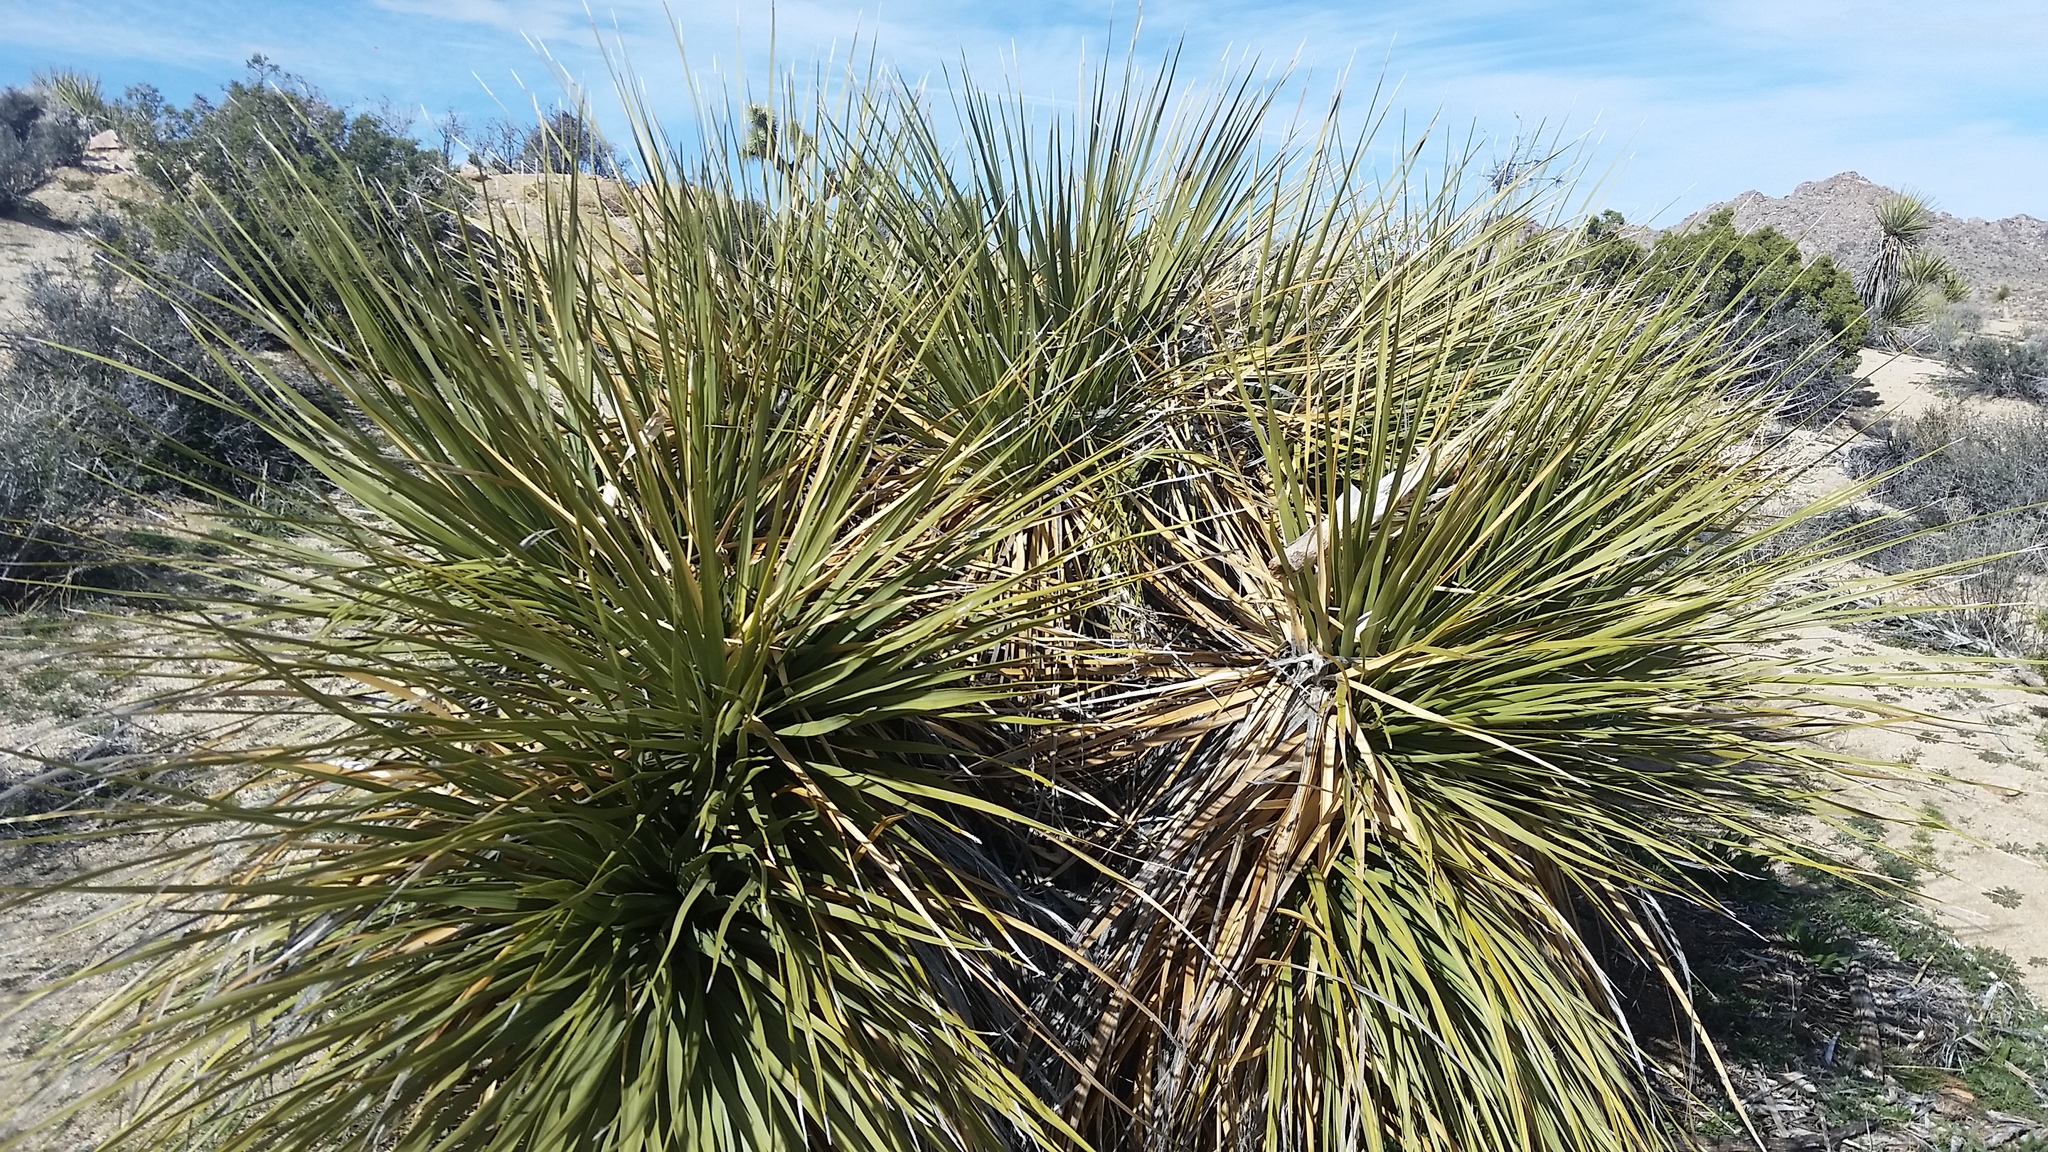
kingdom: Plantae
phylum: Tracheophyta
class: Liliopsida
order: Asparagales
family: Asparagaceae
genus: Nolina
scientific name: Nolina parryi
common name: Parry nolina
